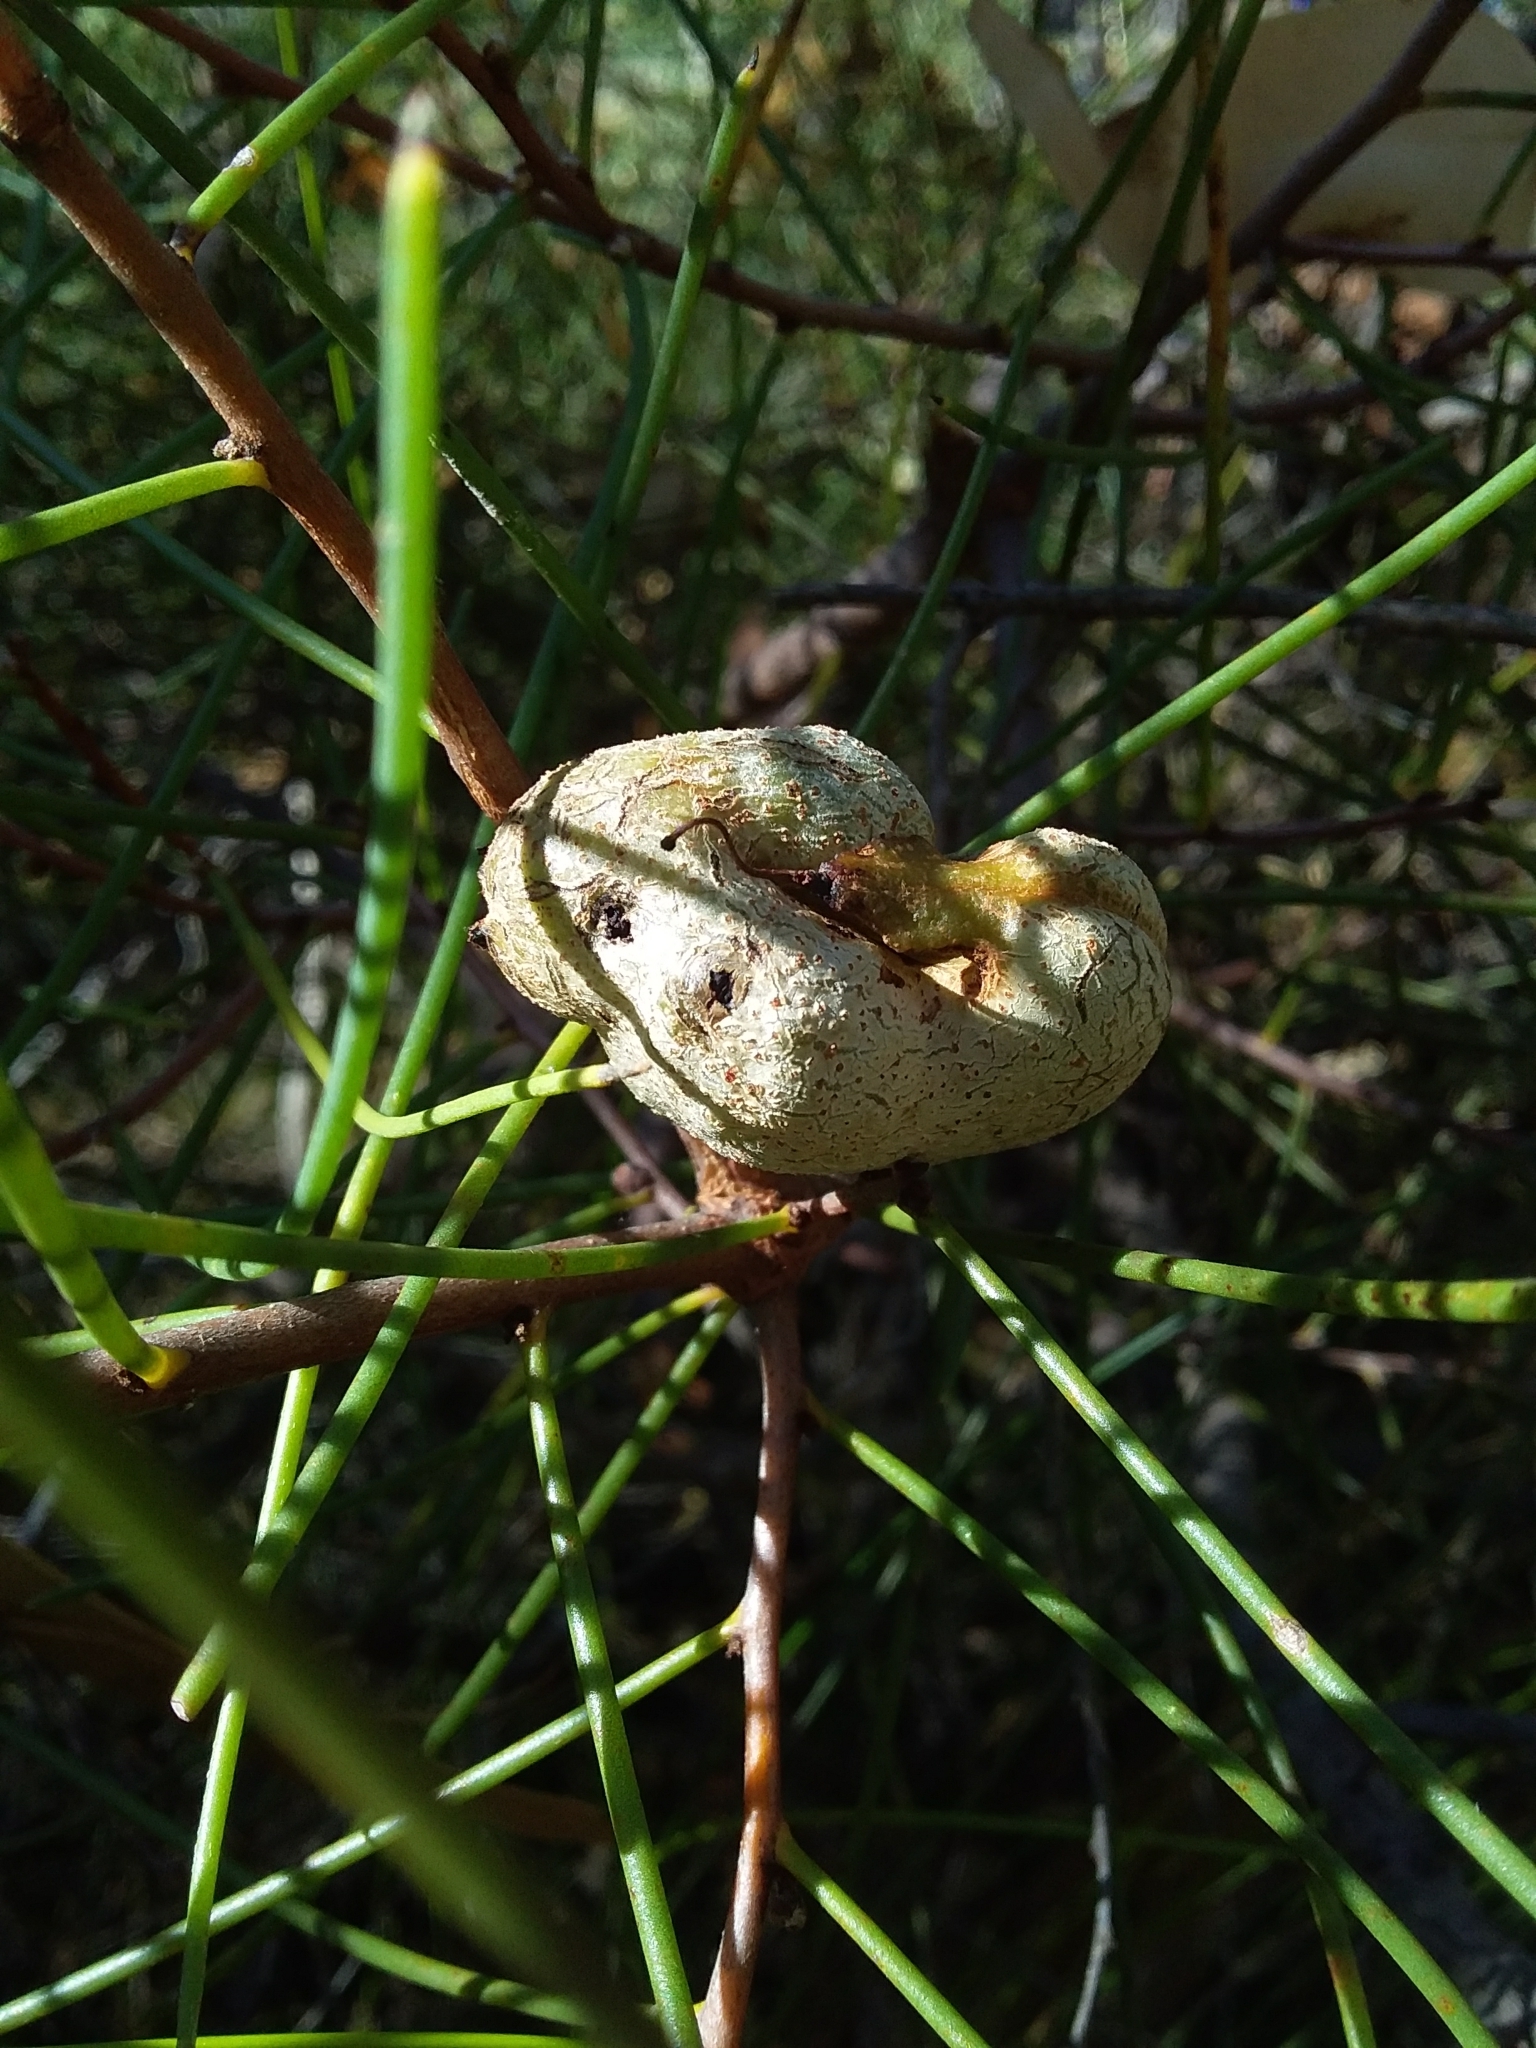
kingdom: Plantae
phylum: Tracheophyta
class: Magnoliopsida
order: Proteales
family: Proteaceae
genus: Hakea
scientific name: Hakea rostrata
